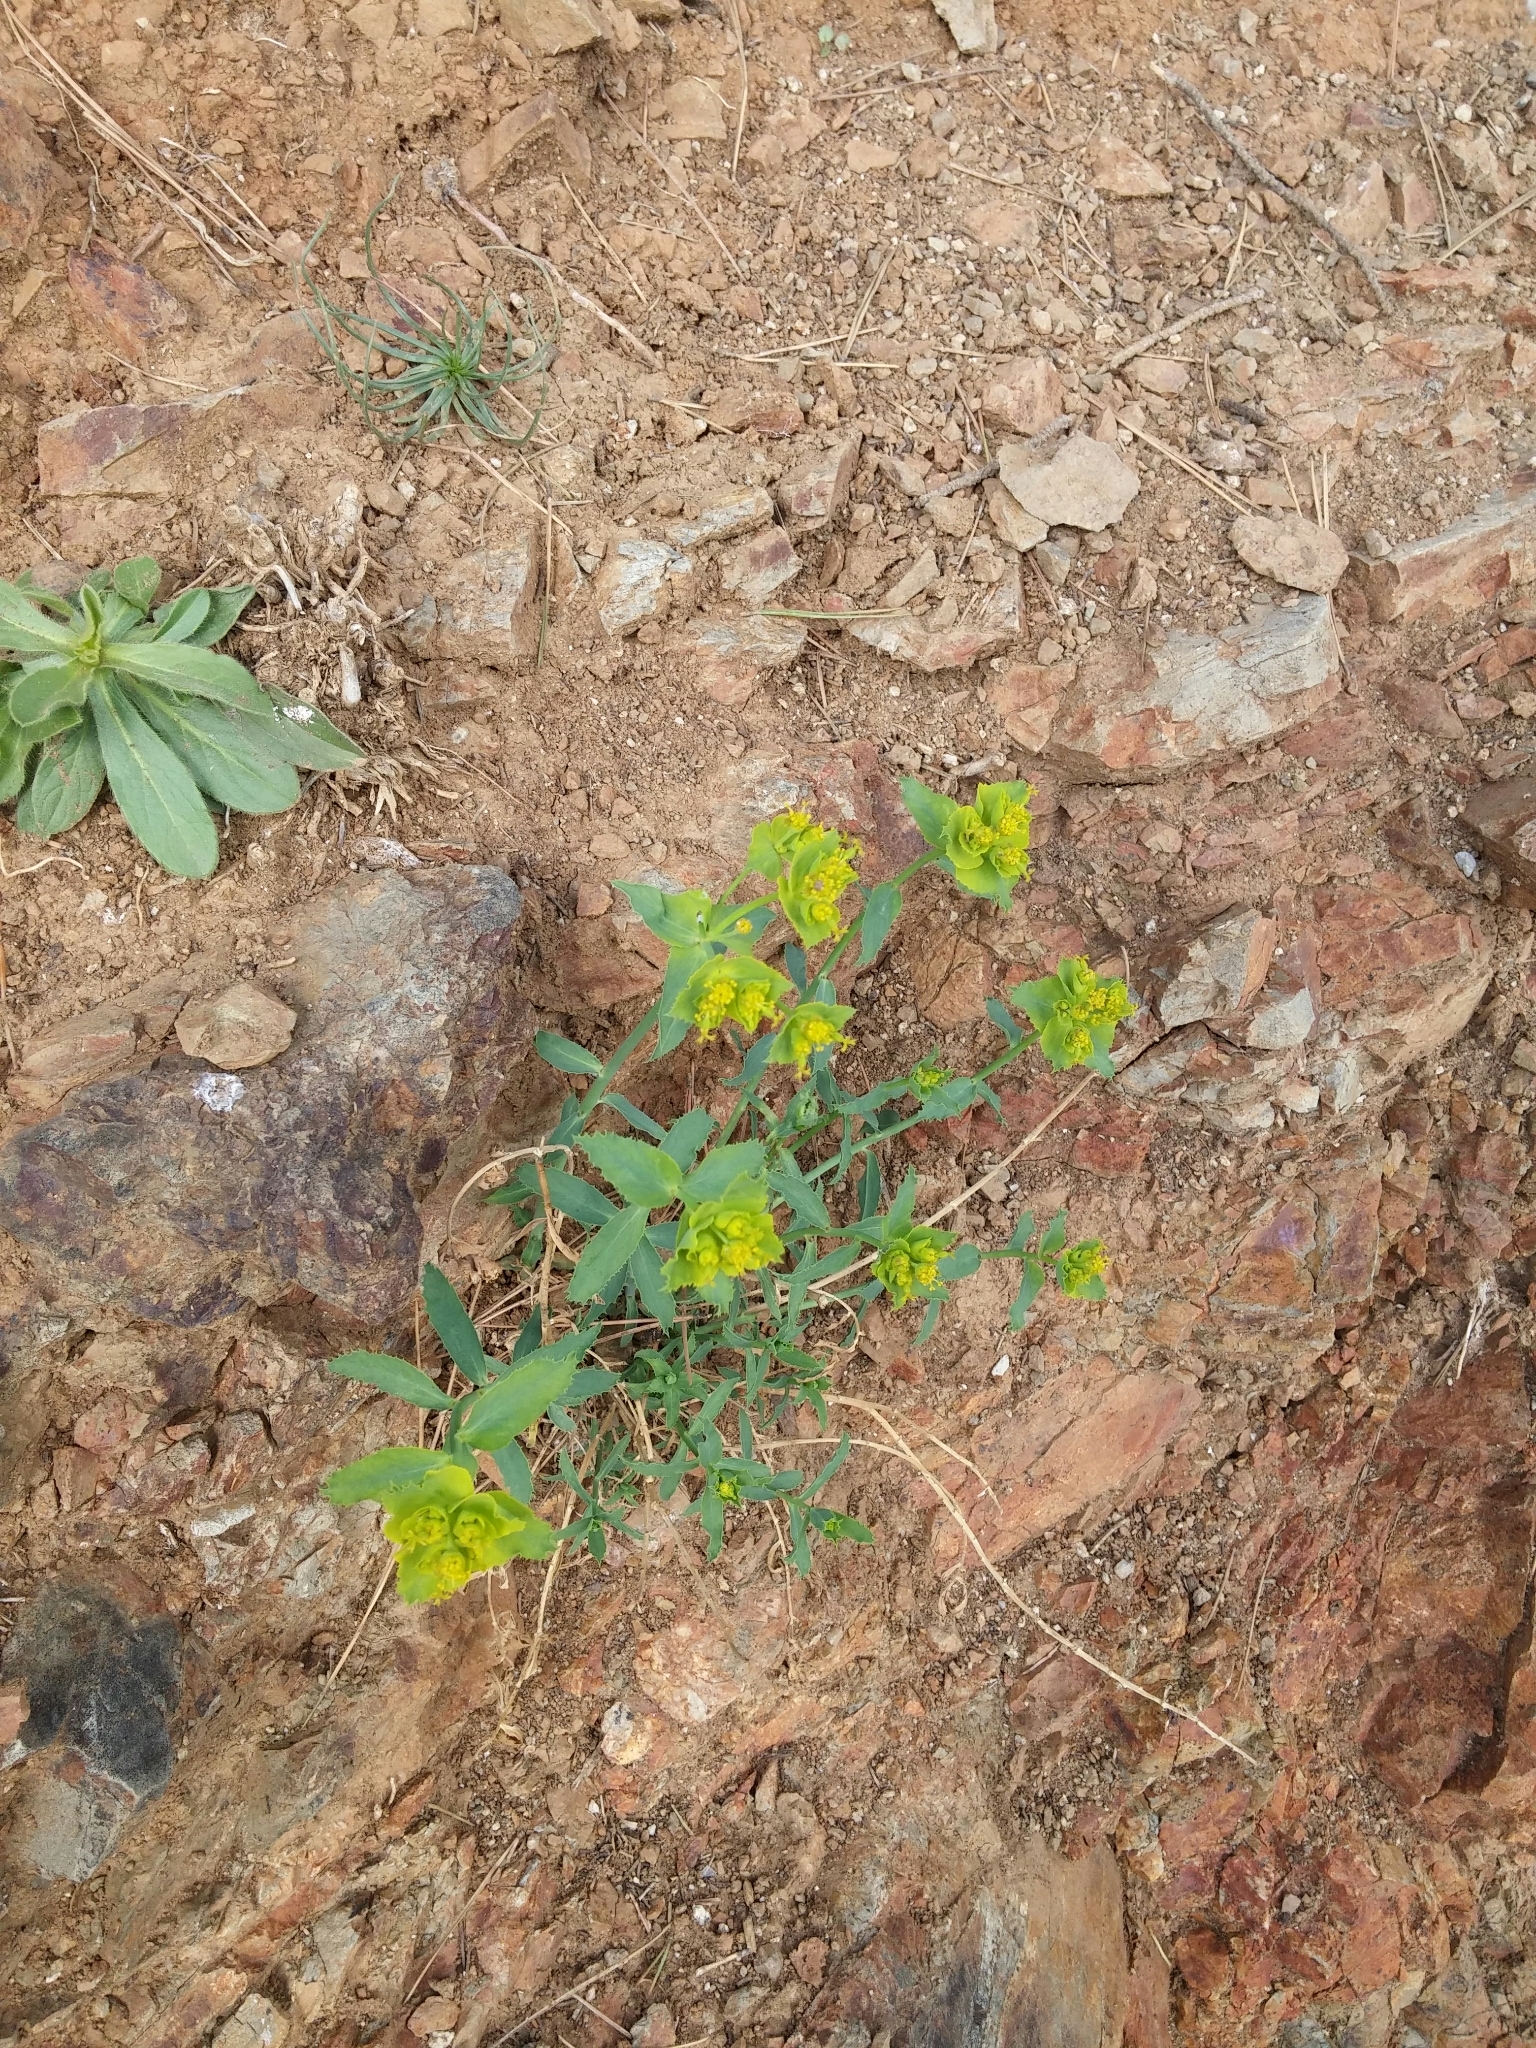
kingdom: Plantae
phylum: Tracheophyta
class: Magnoliopsida
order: Malpighiales
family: Euphorbiaceae
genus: Euphorbia
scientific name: Euphorbia serrata
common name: Serrate spurge
